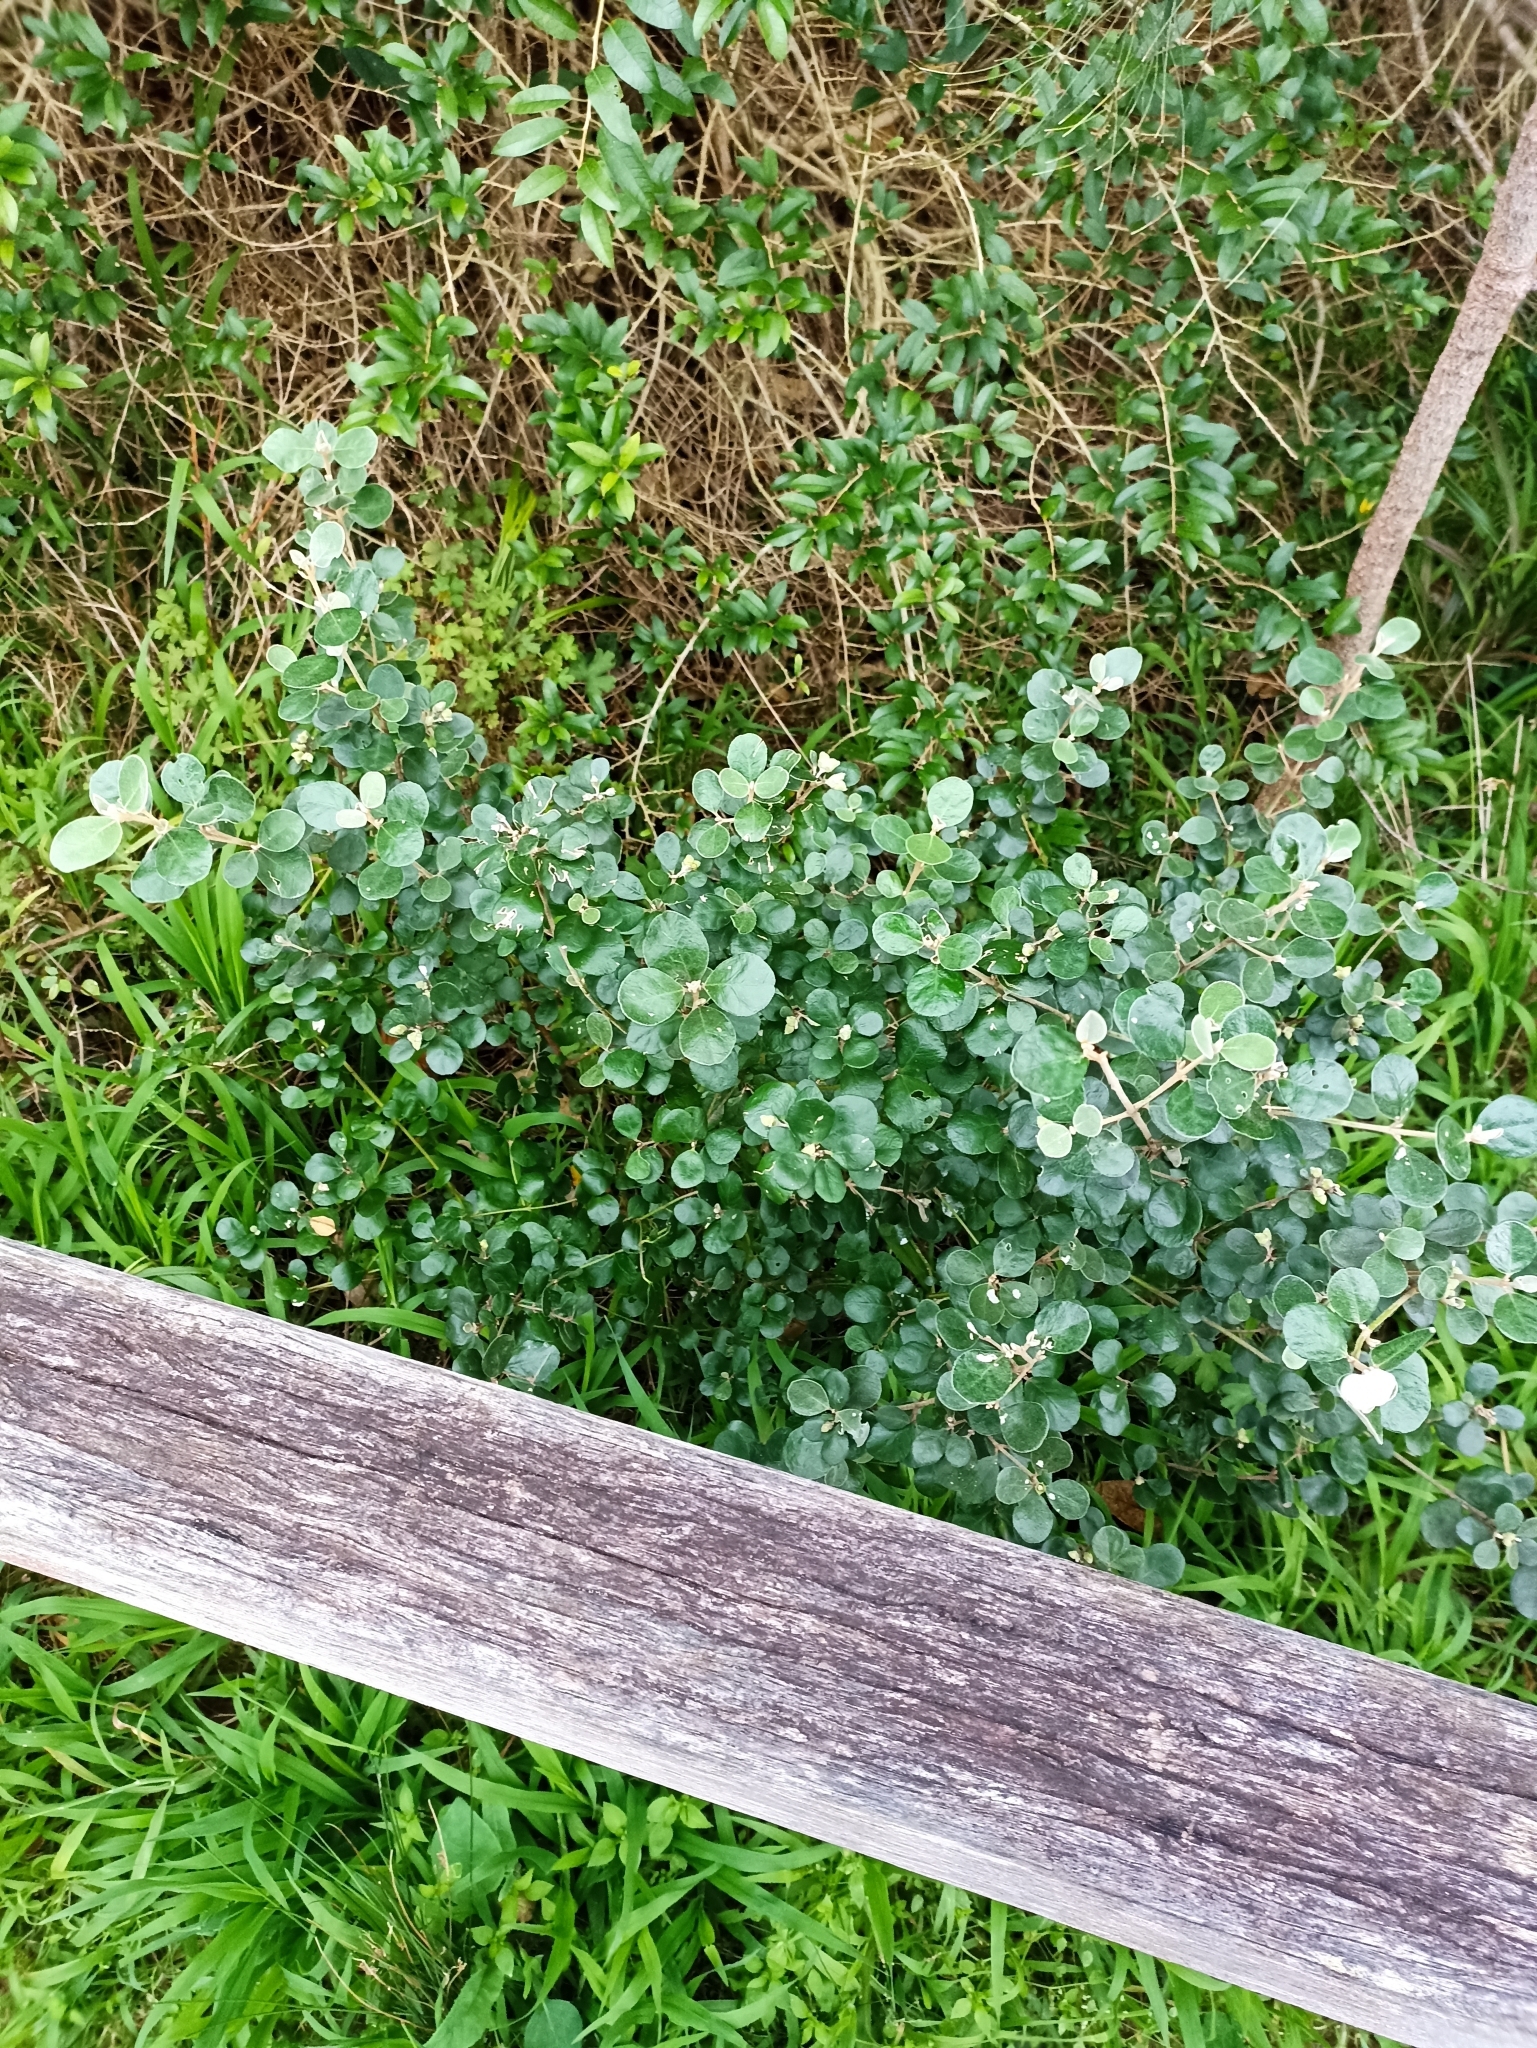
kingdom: Plantae
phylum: Tracheophyta
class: Magnoliopsida
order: Sapindales
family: Rutaceae
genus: Correa
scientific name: Correa alba
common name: White correa
